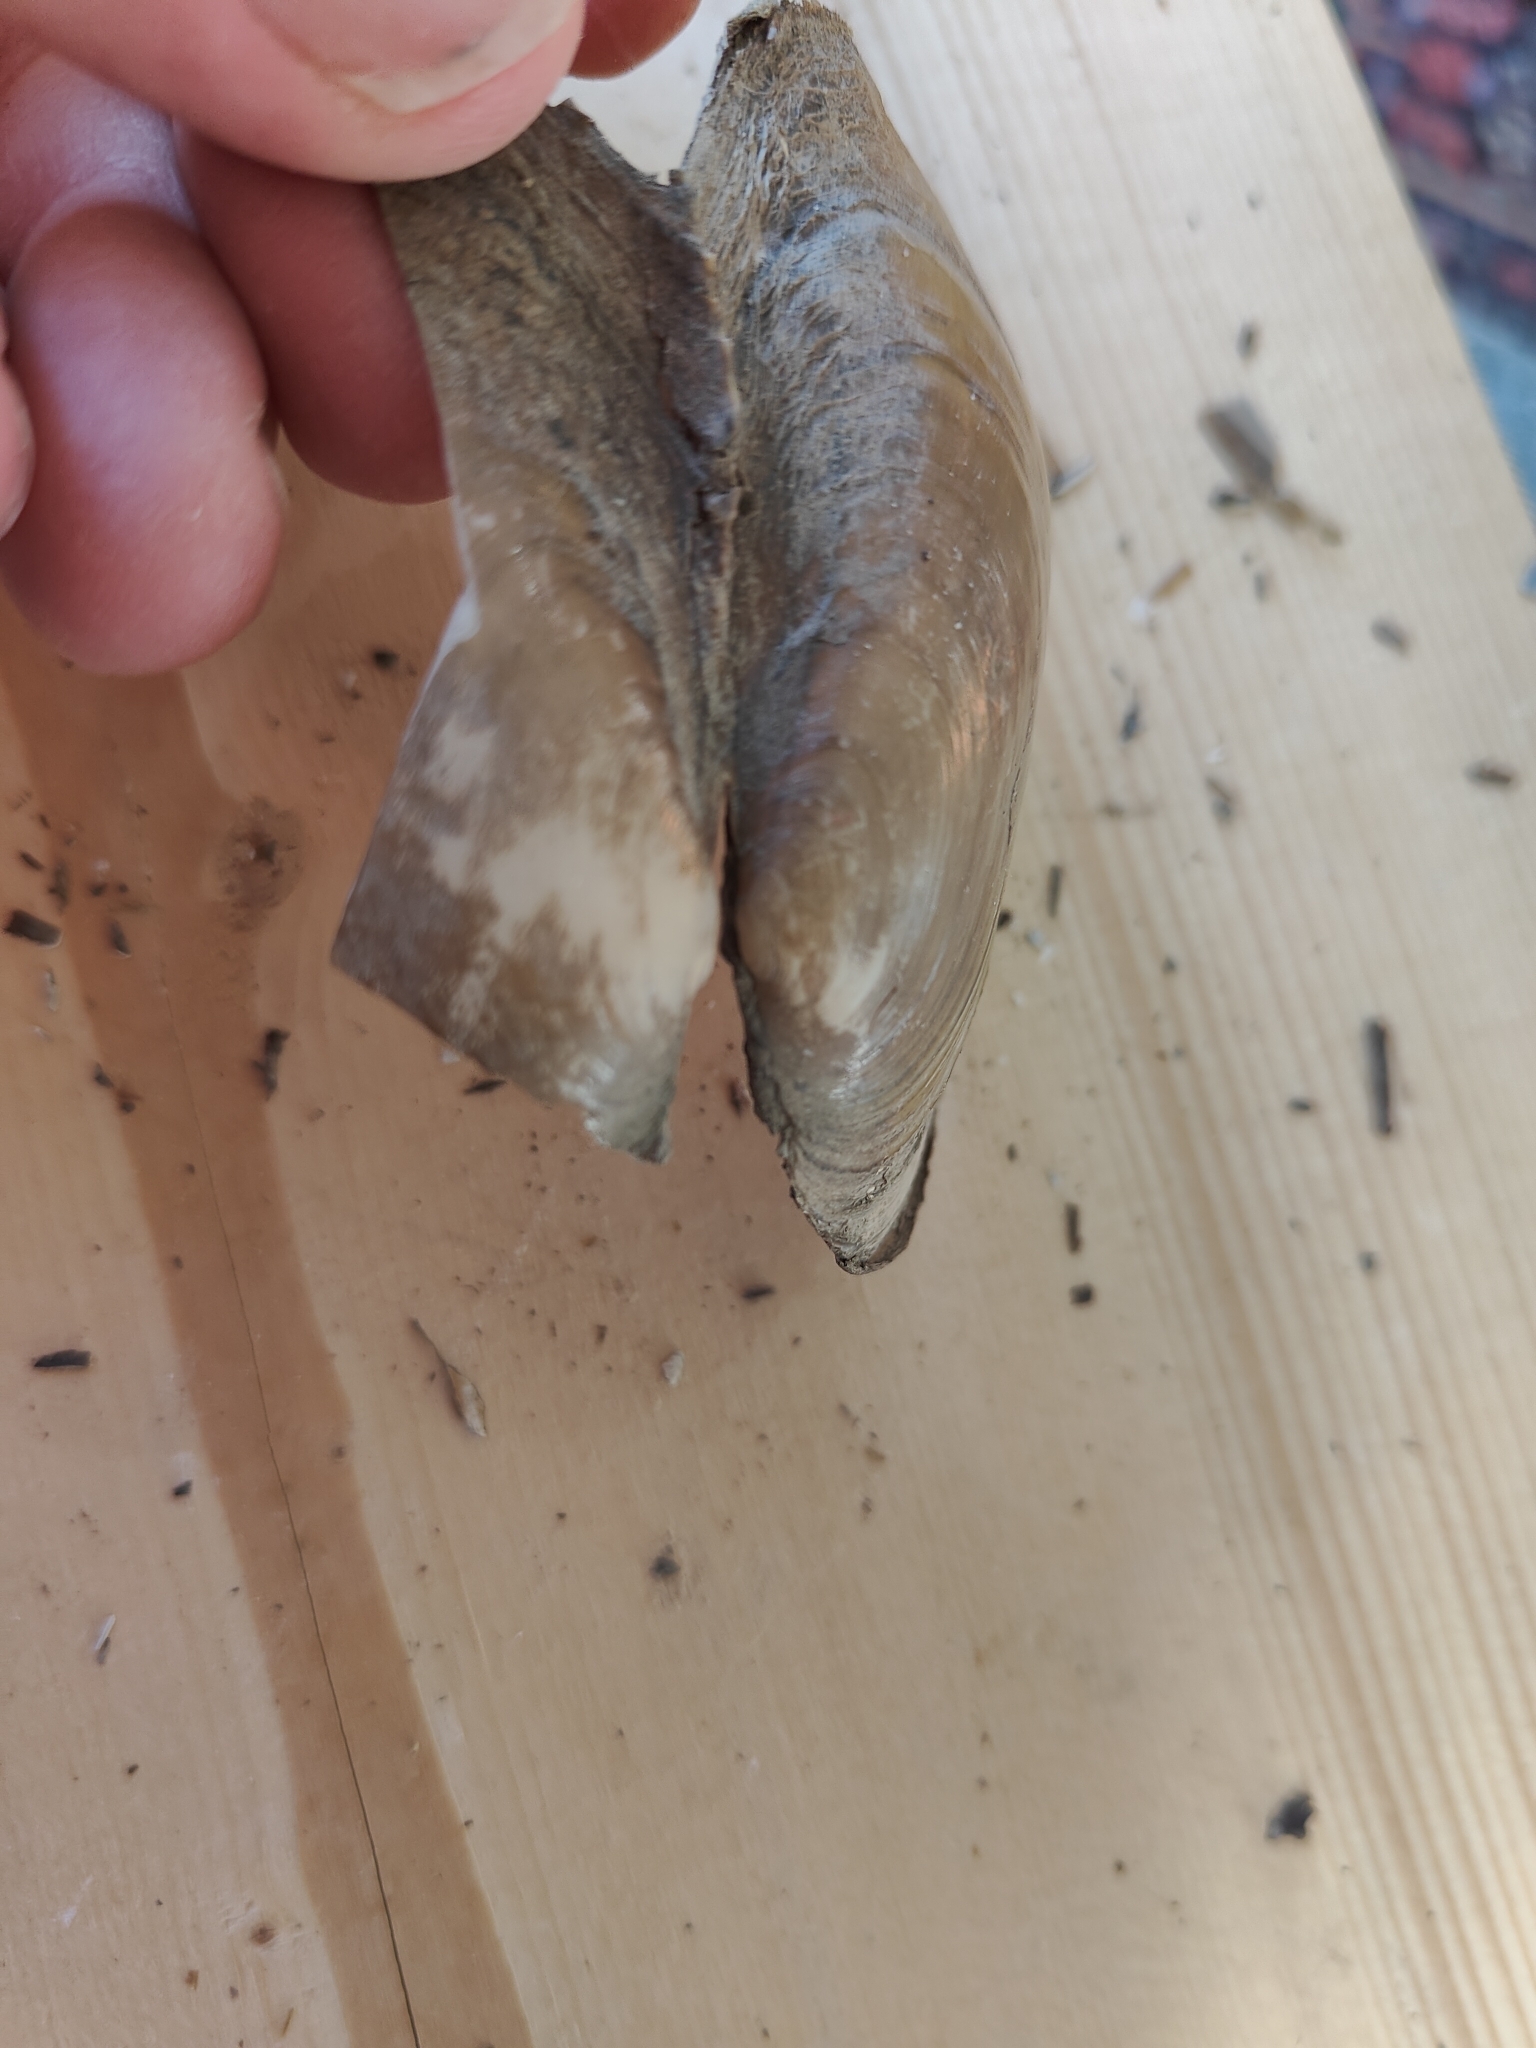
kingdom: Animalia
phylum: Mollusca
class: Bivalvia
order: Unionida
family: Unionidae
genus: Potamilus
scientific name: Potamilus fragilis
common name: Fragile papershell
